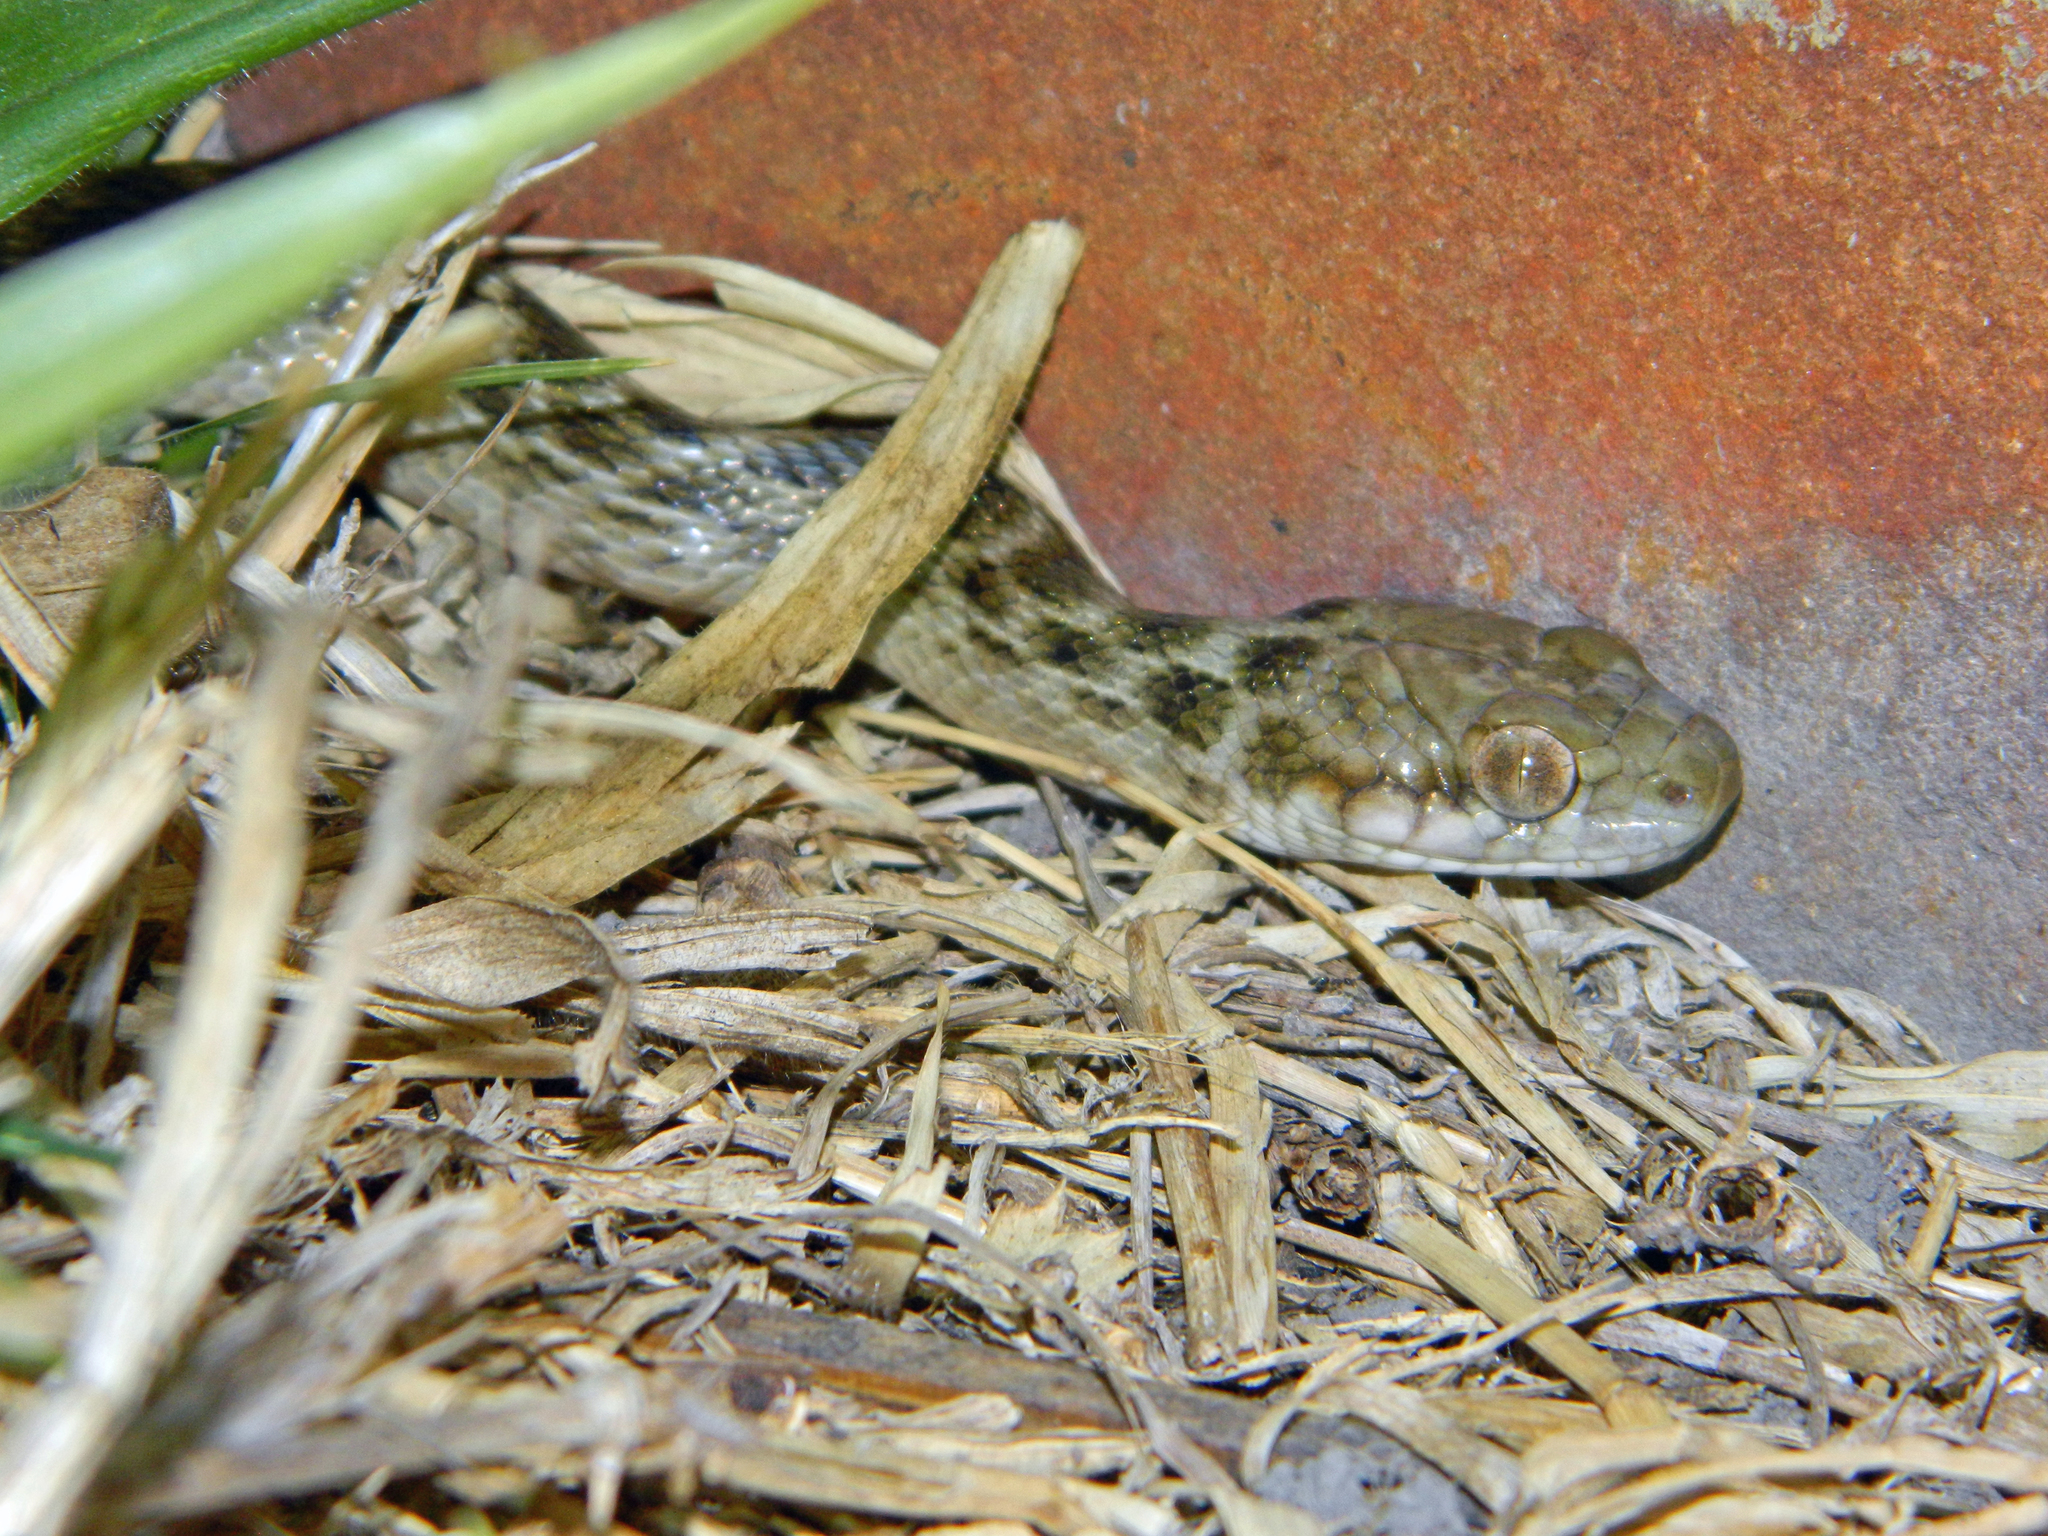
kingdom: Animalia
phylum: Chordata
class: Squamata
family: Pseudoxyrhophiidae
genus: Madagascarophis
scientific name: Madagascarophis meridionalis
